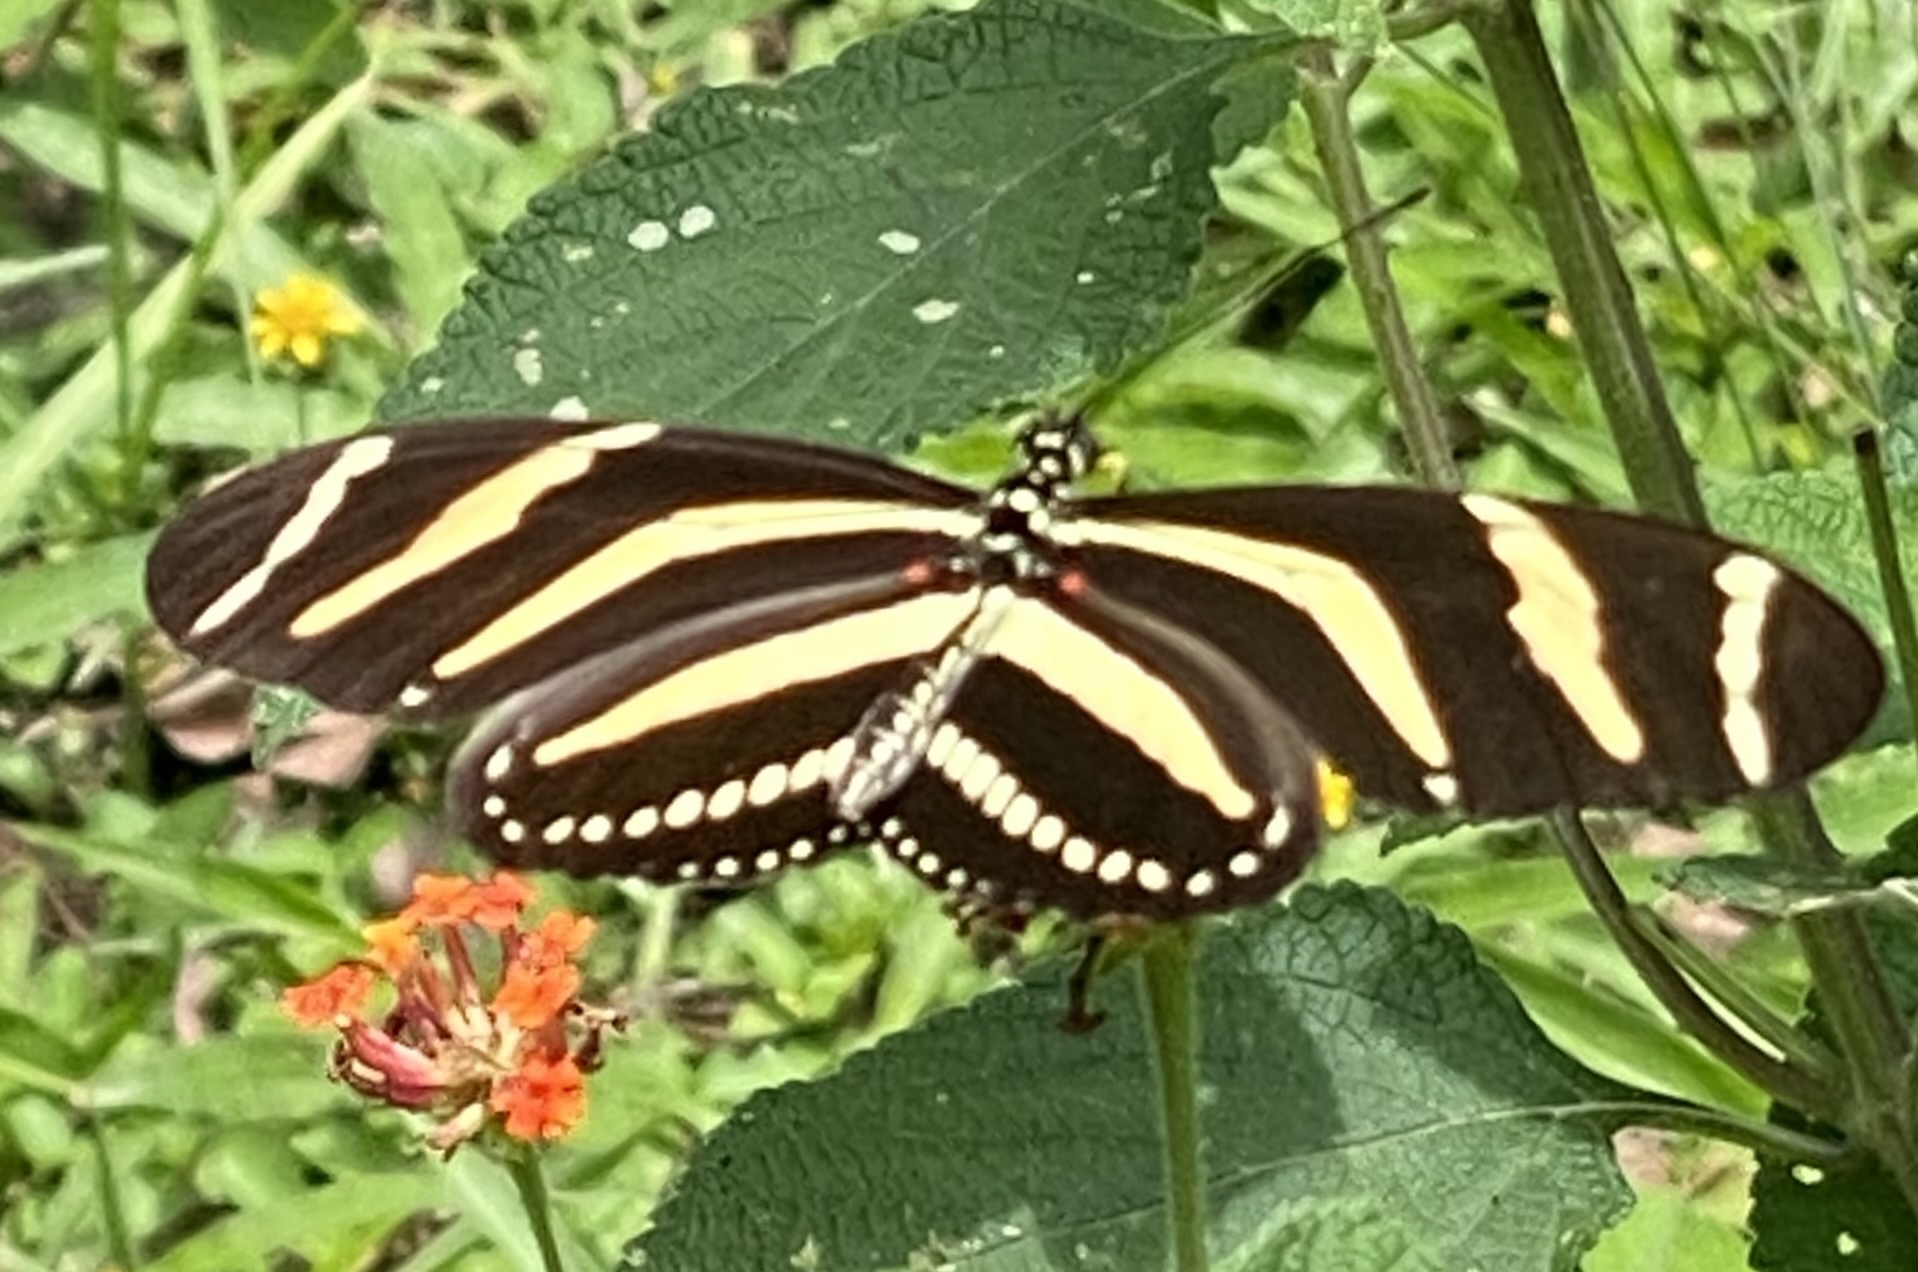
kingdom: Animalia
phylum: Arthropoda
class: Insecta
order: Lepidoptera
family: Nymphalidae
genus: Heliconius
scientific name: Heliconius charithonia
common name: Zebra long wing
